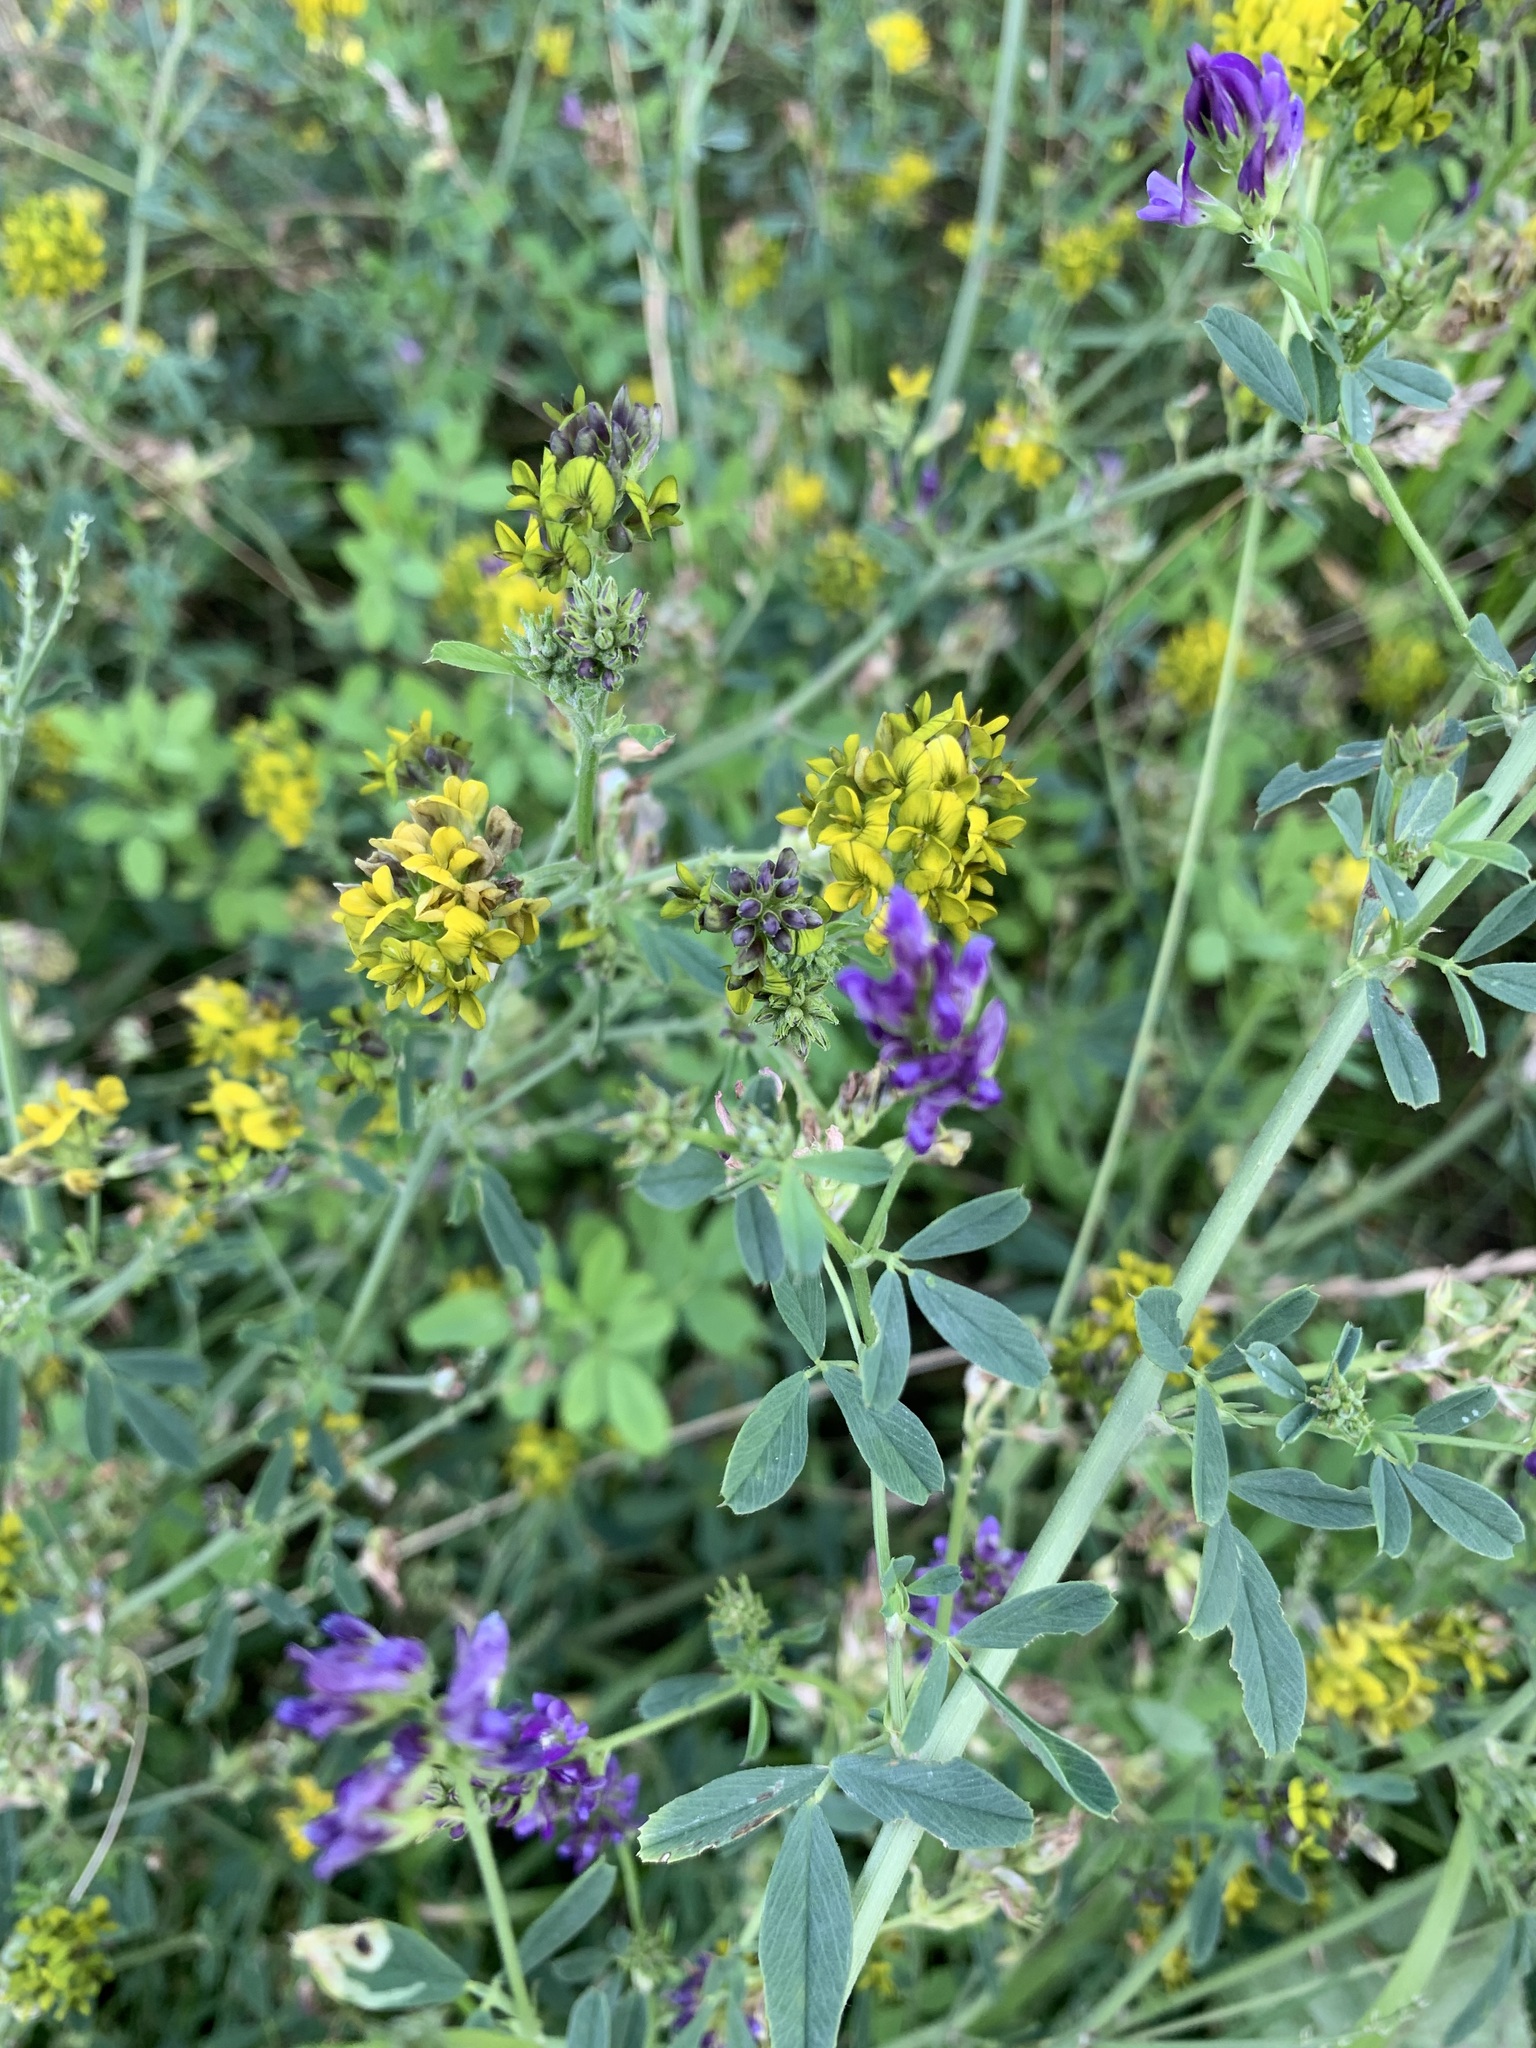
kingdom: Plantae
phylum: Tracheophyta
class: Magnoliopsida
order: Fabales
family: Fabaceae
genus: Medicago
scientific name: Medicago varia
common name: Sand lucerne
